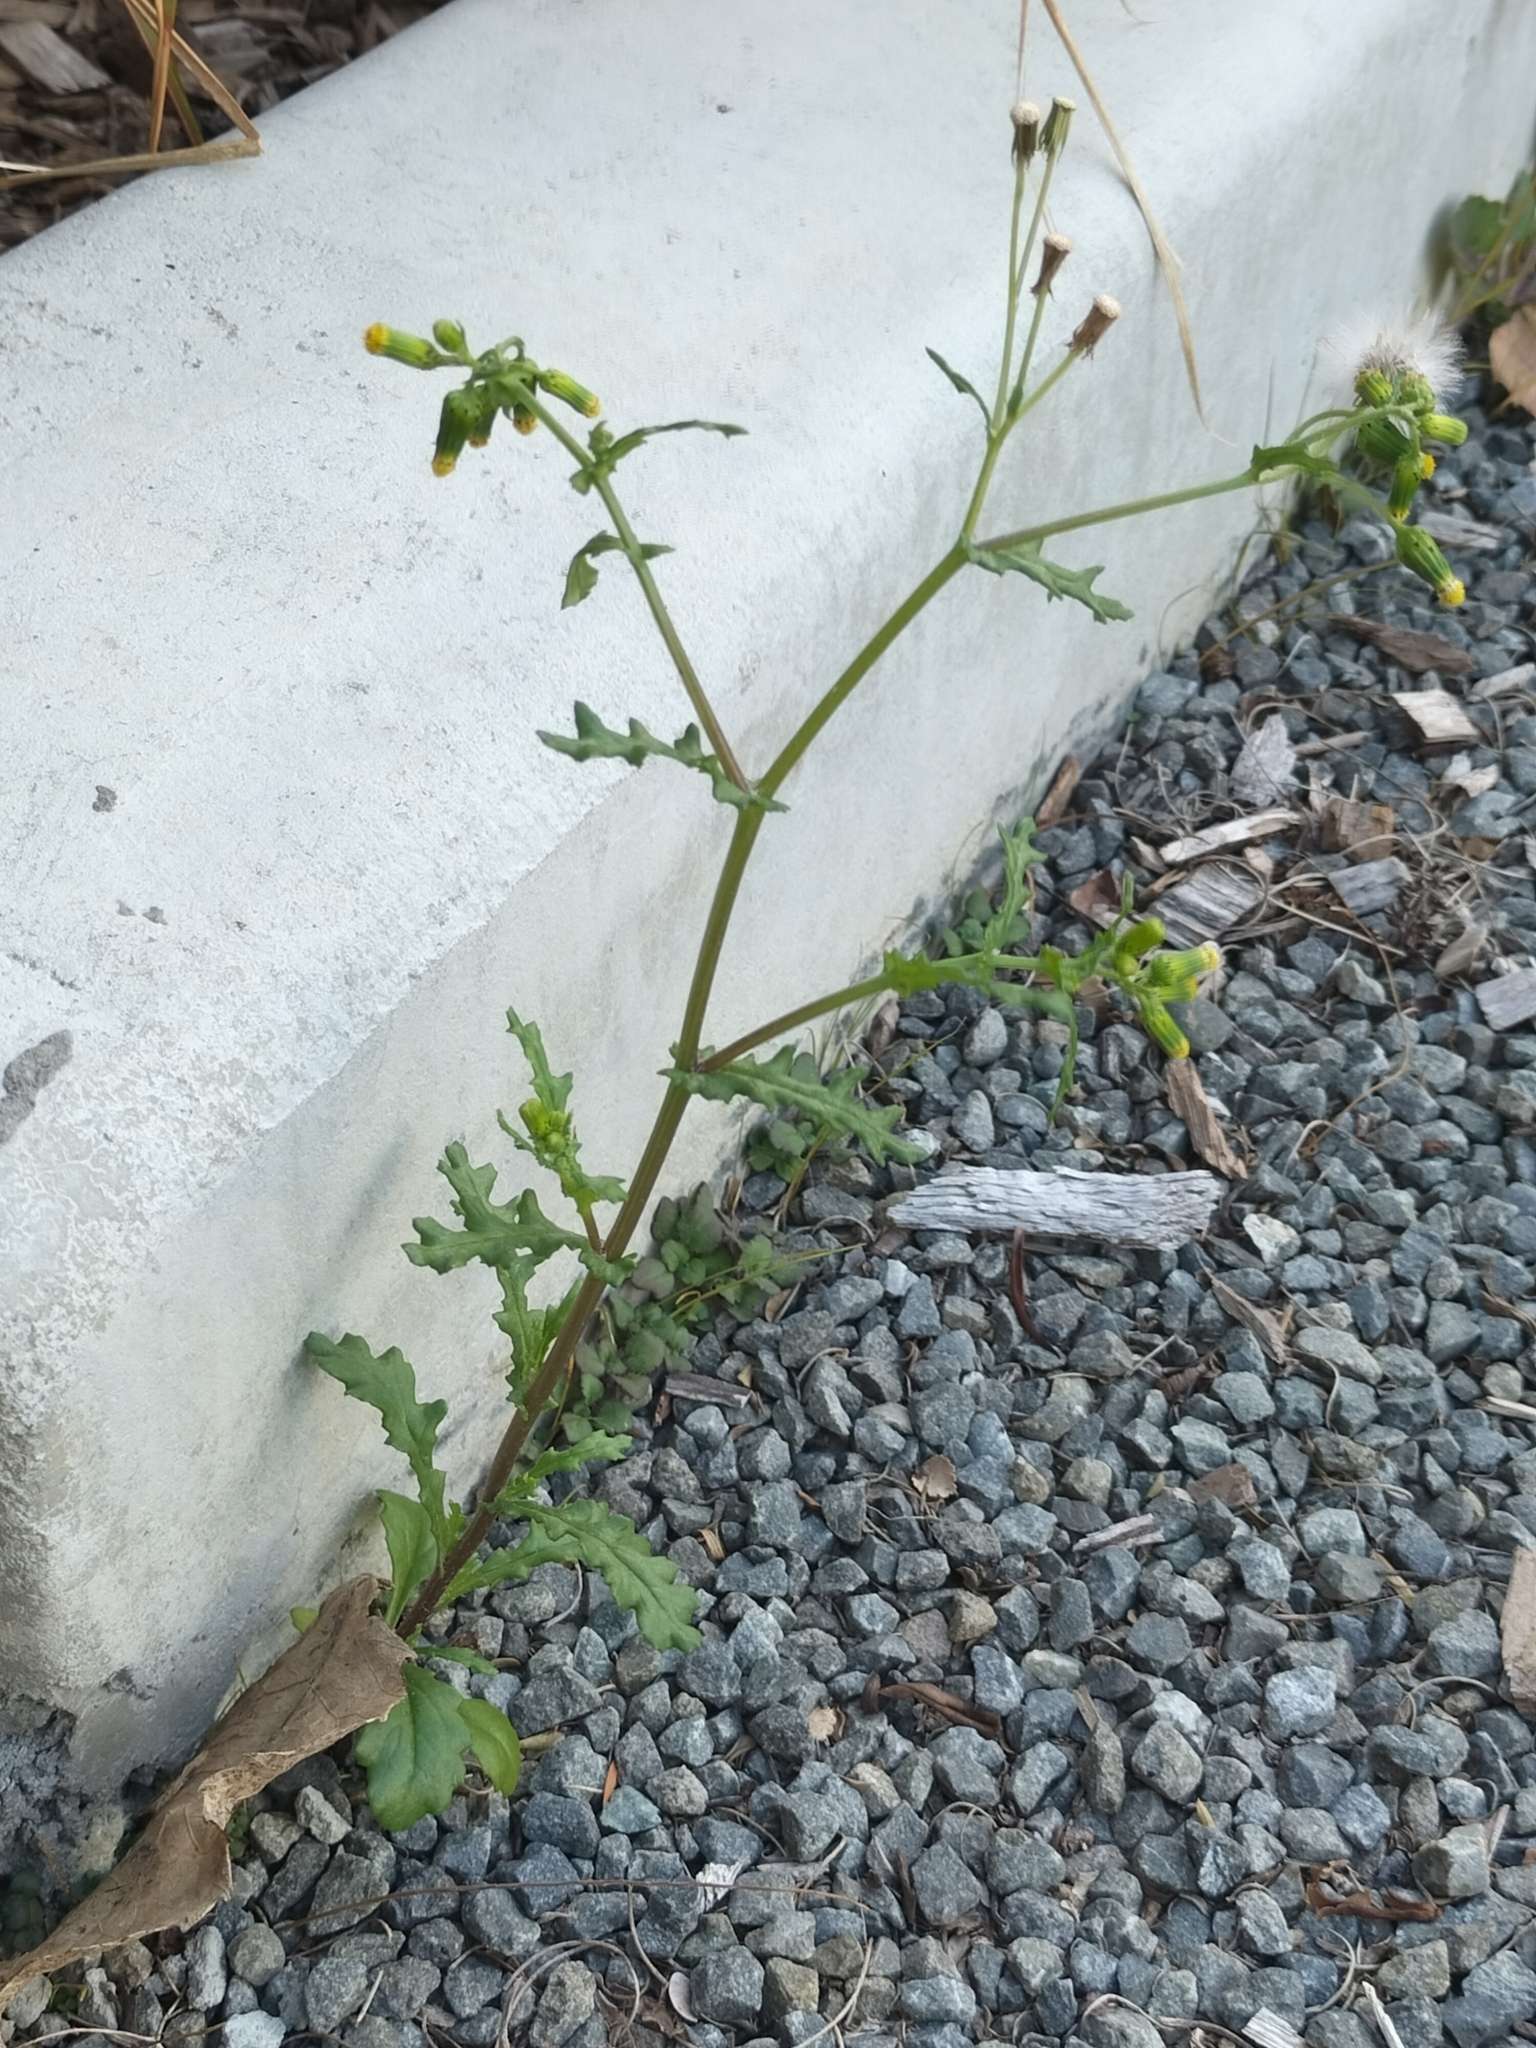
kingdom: Plantae
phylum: Tracheophyta
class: Magnoliopsida
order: Asterales
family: Asteraceae
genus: Senecio
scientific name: Senecio vulgaris
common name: Old-man-in-the-spring
